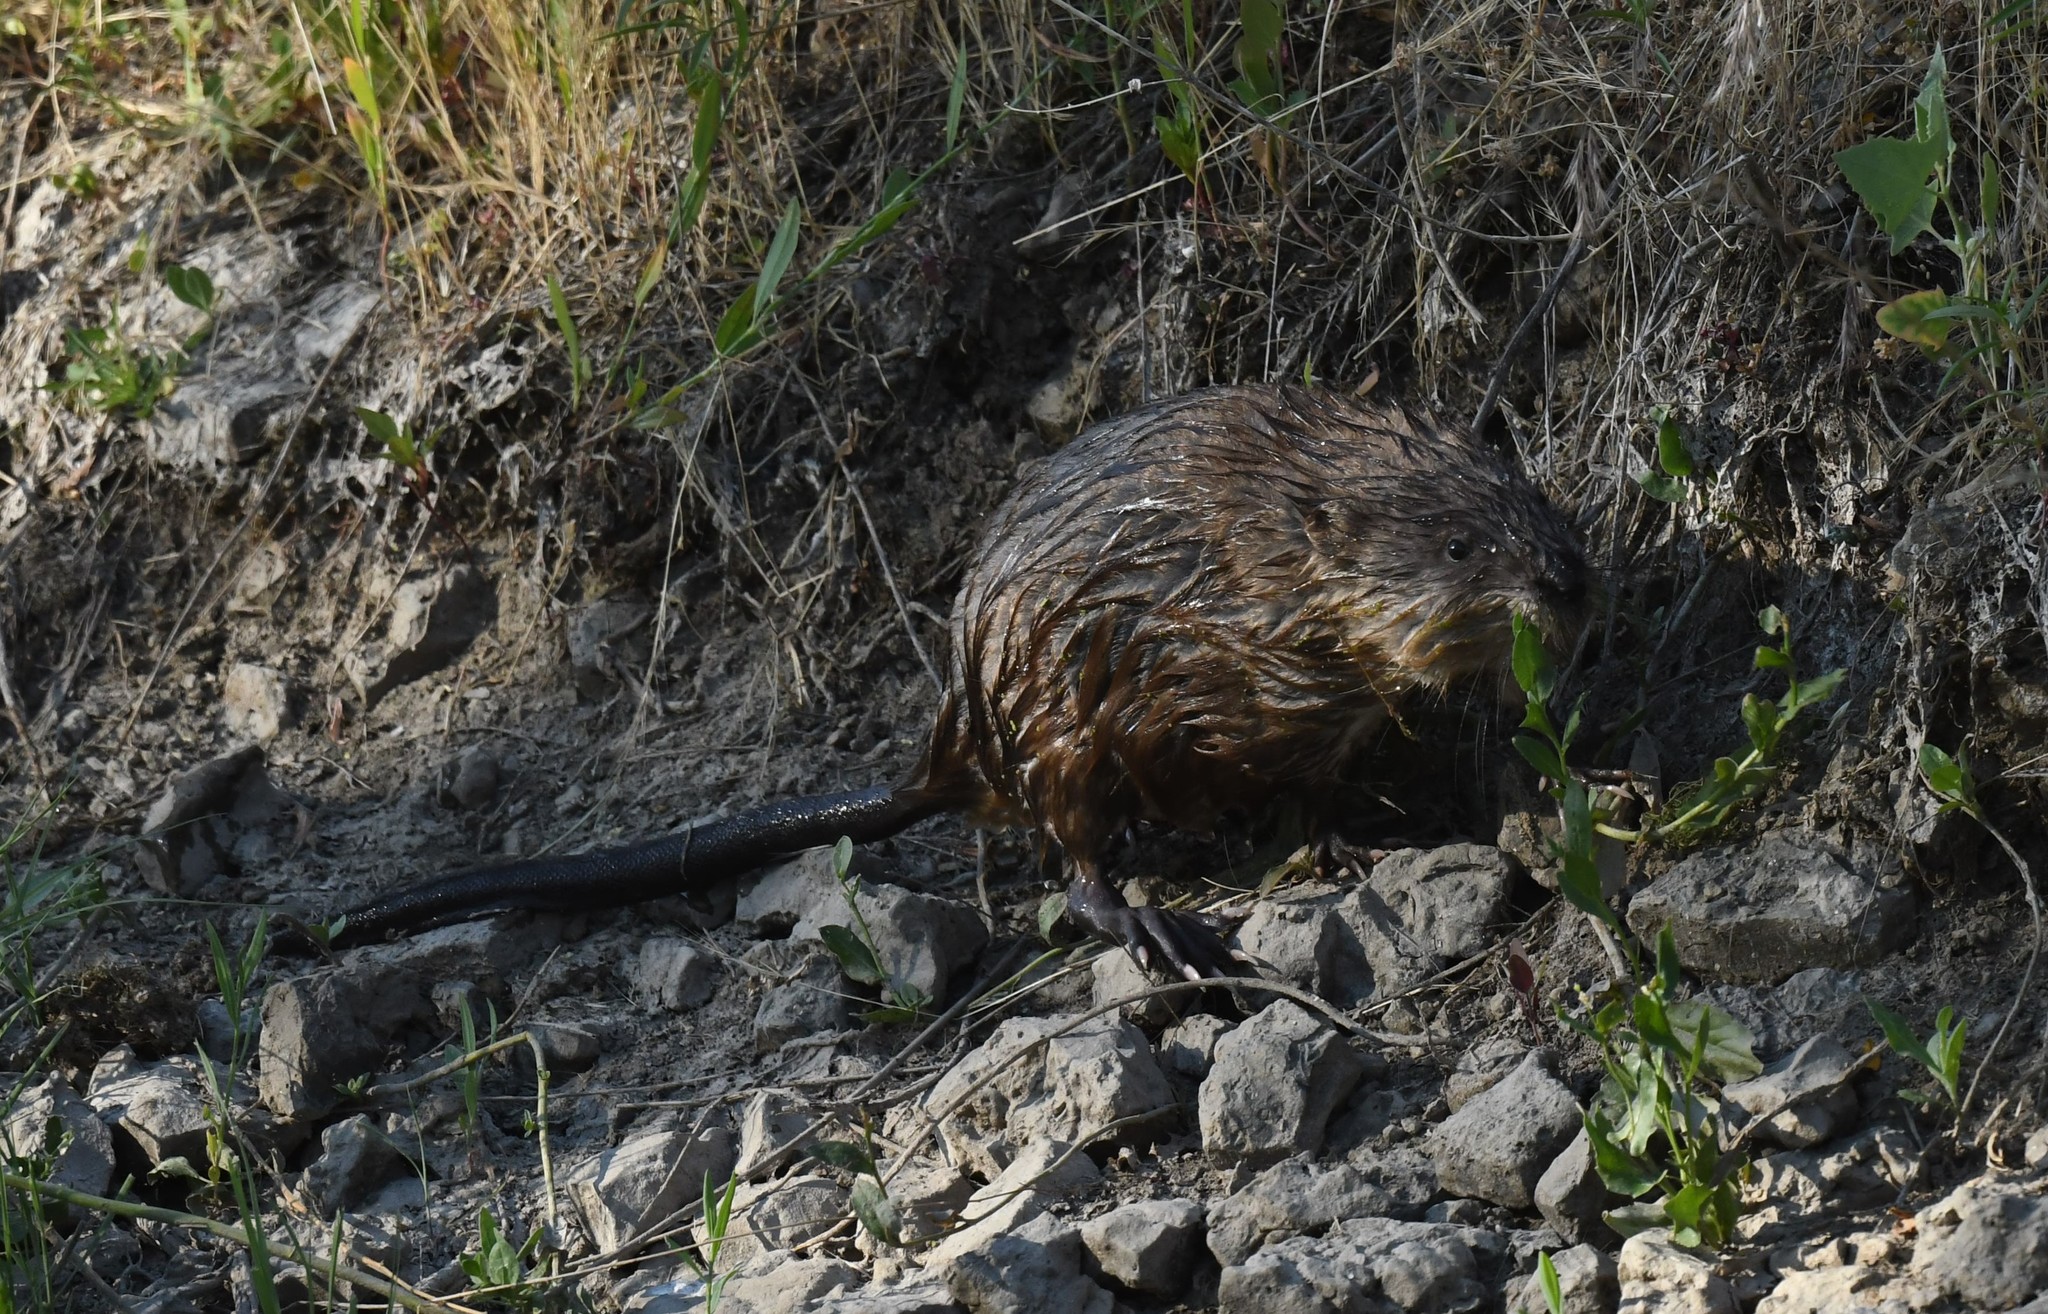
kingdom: Animalia
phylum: Chordata
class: Mammalia
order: Rodentia
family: Cricetidae
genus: Ondatra
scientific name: Ondatra zibethicus
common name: Muskrat
